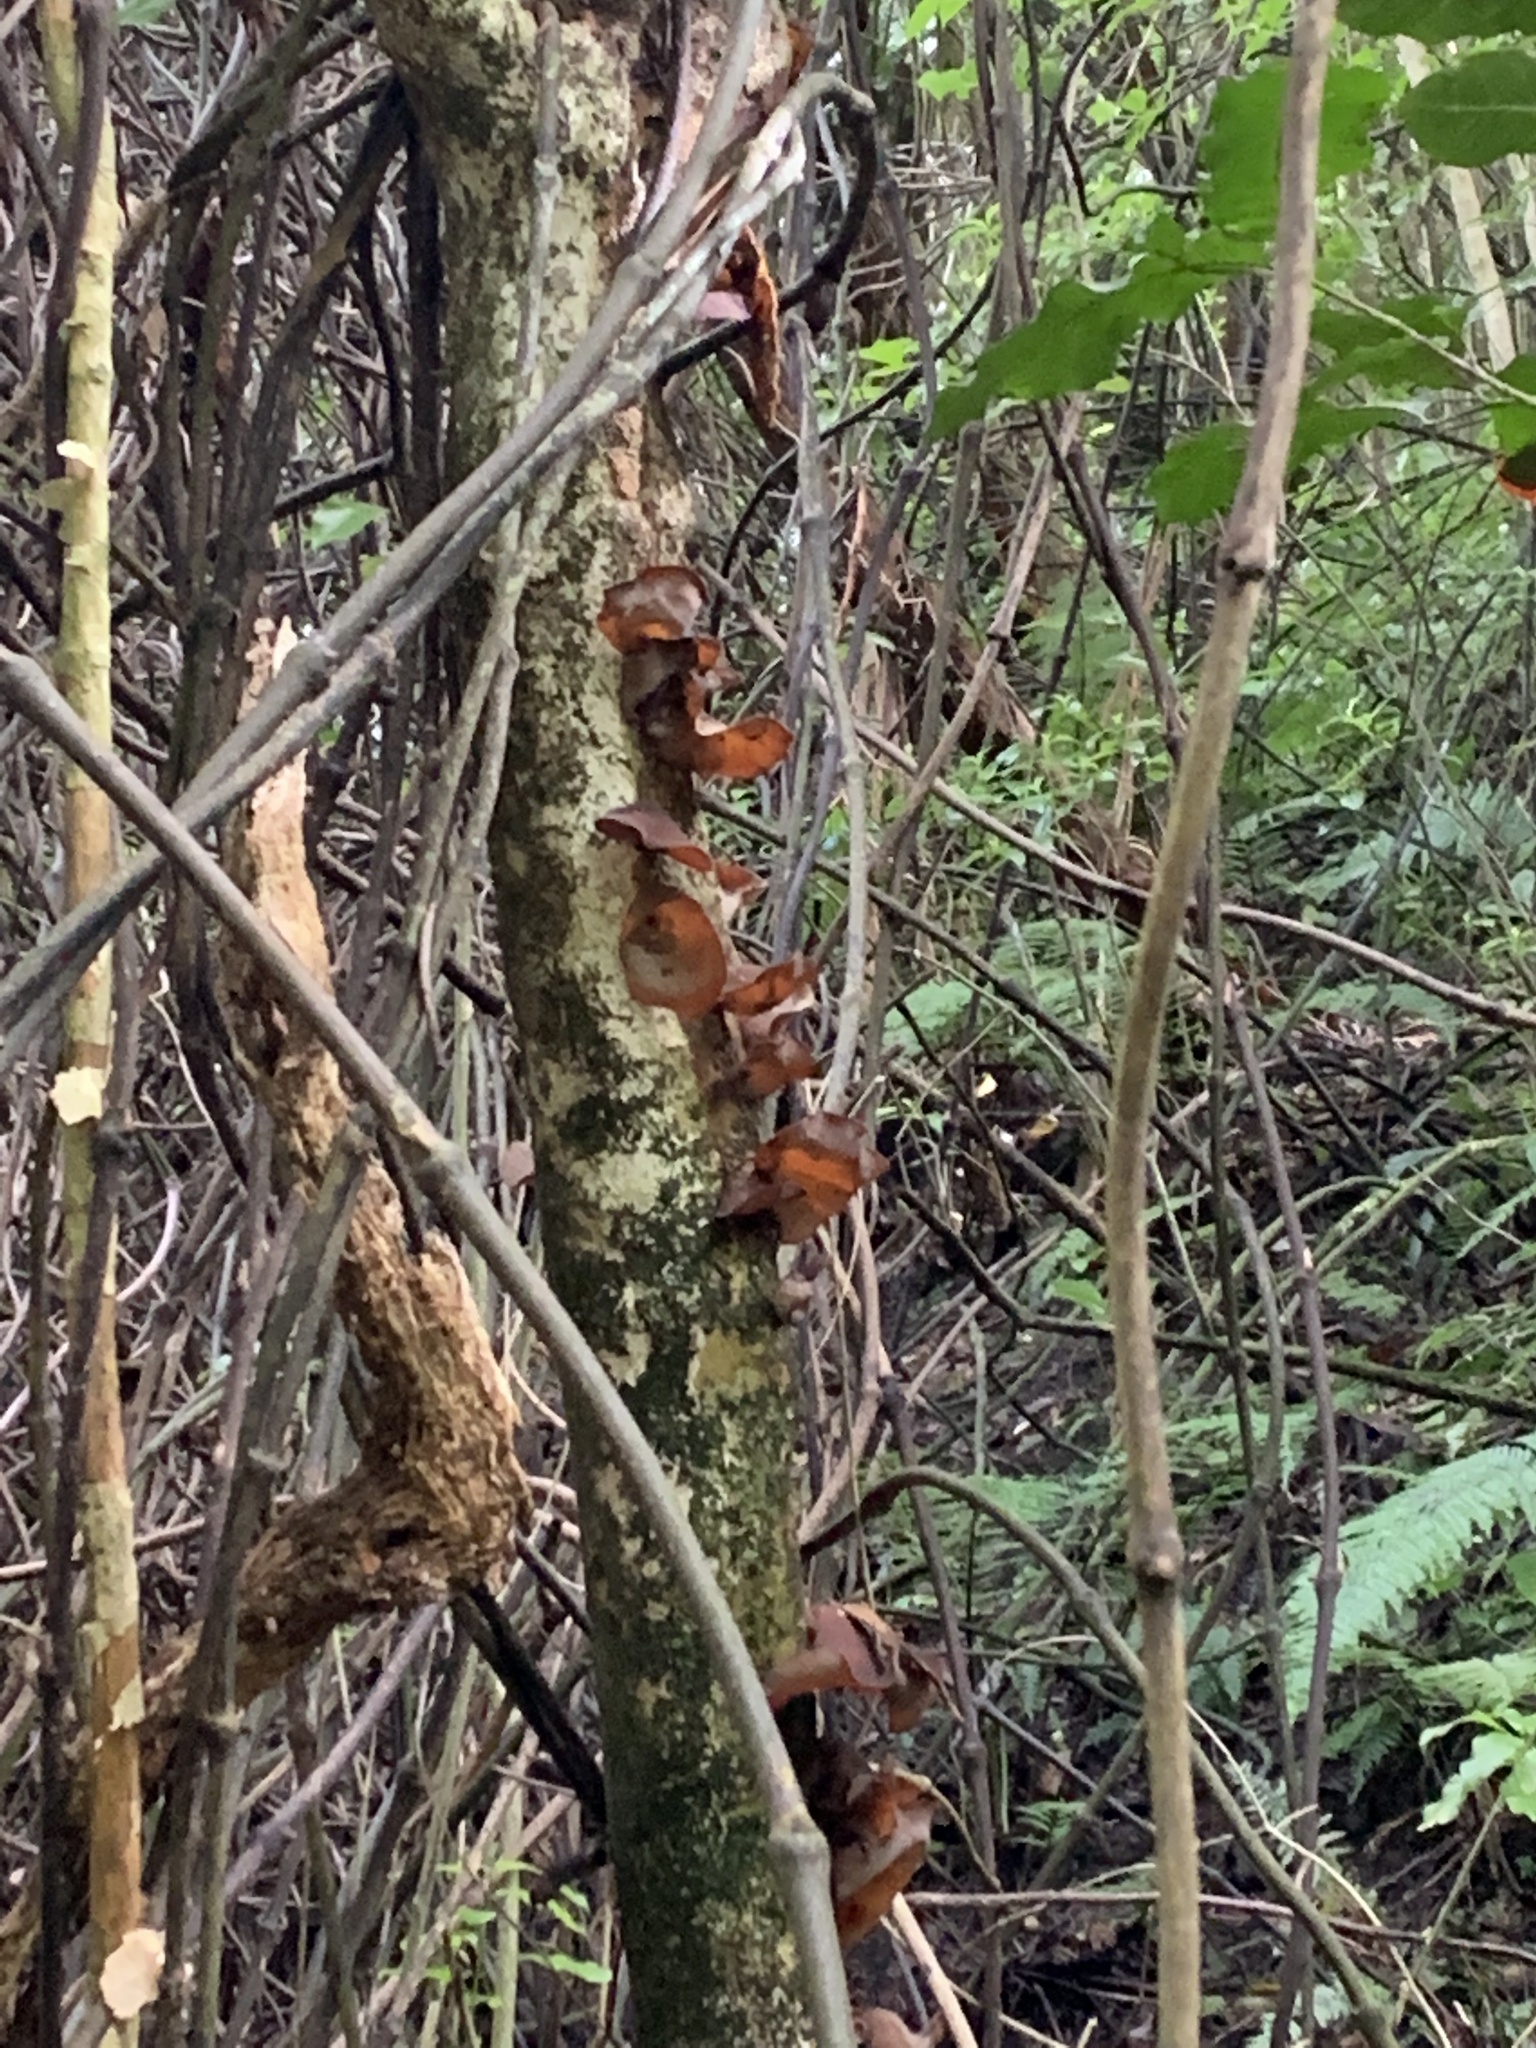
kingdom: Fungi
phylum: Basidiomycota
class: Agaricomycetes
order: Auriculariales
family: Auriculariaceae
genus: Auricularia
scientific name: Auricularia cornea
